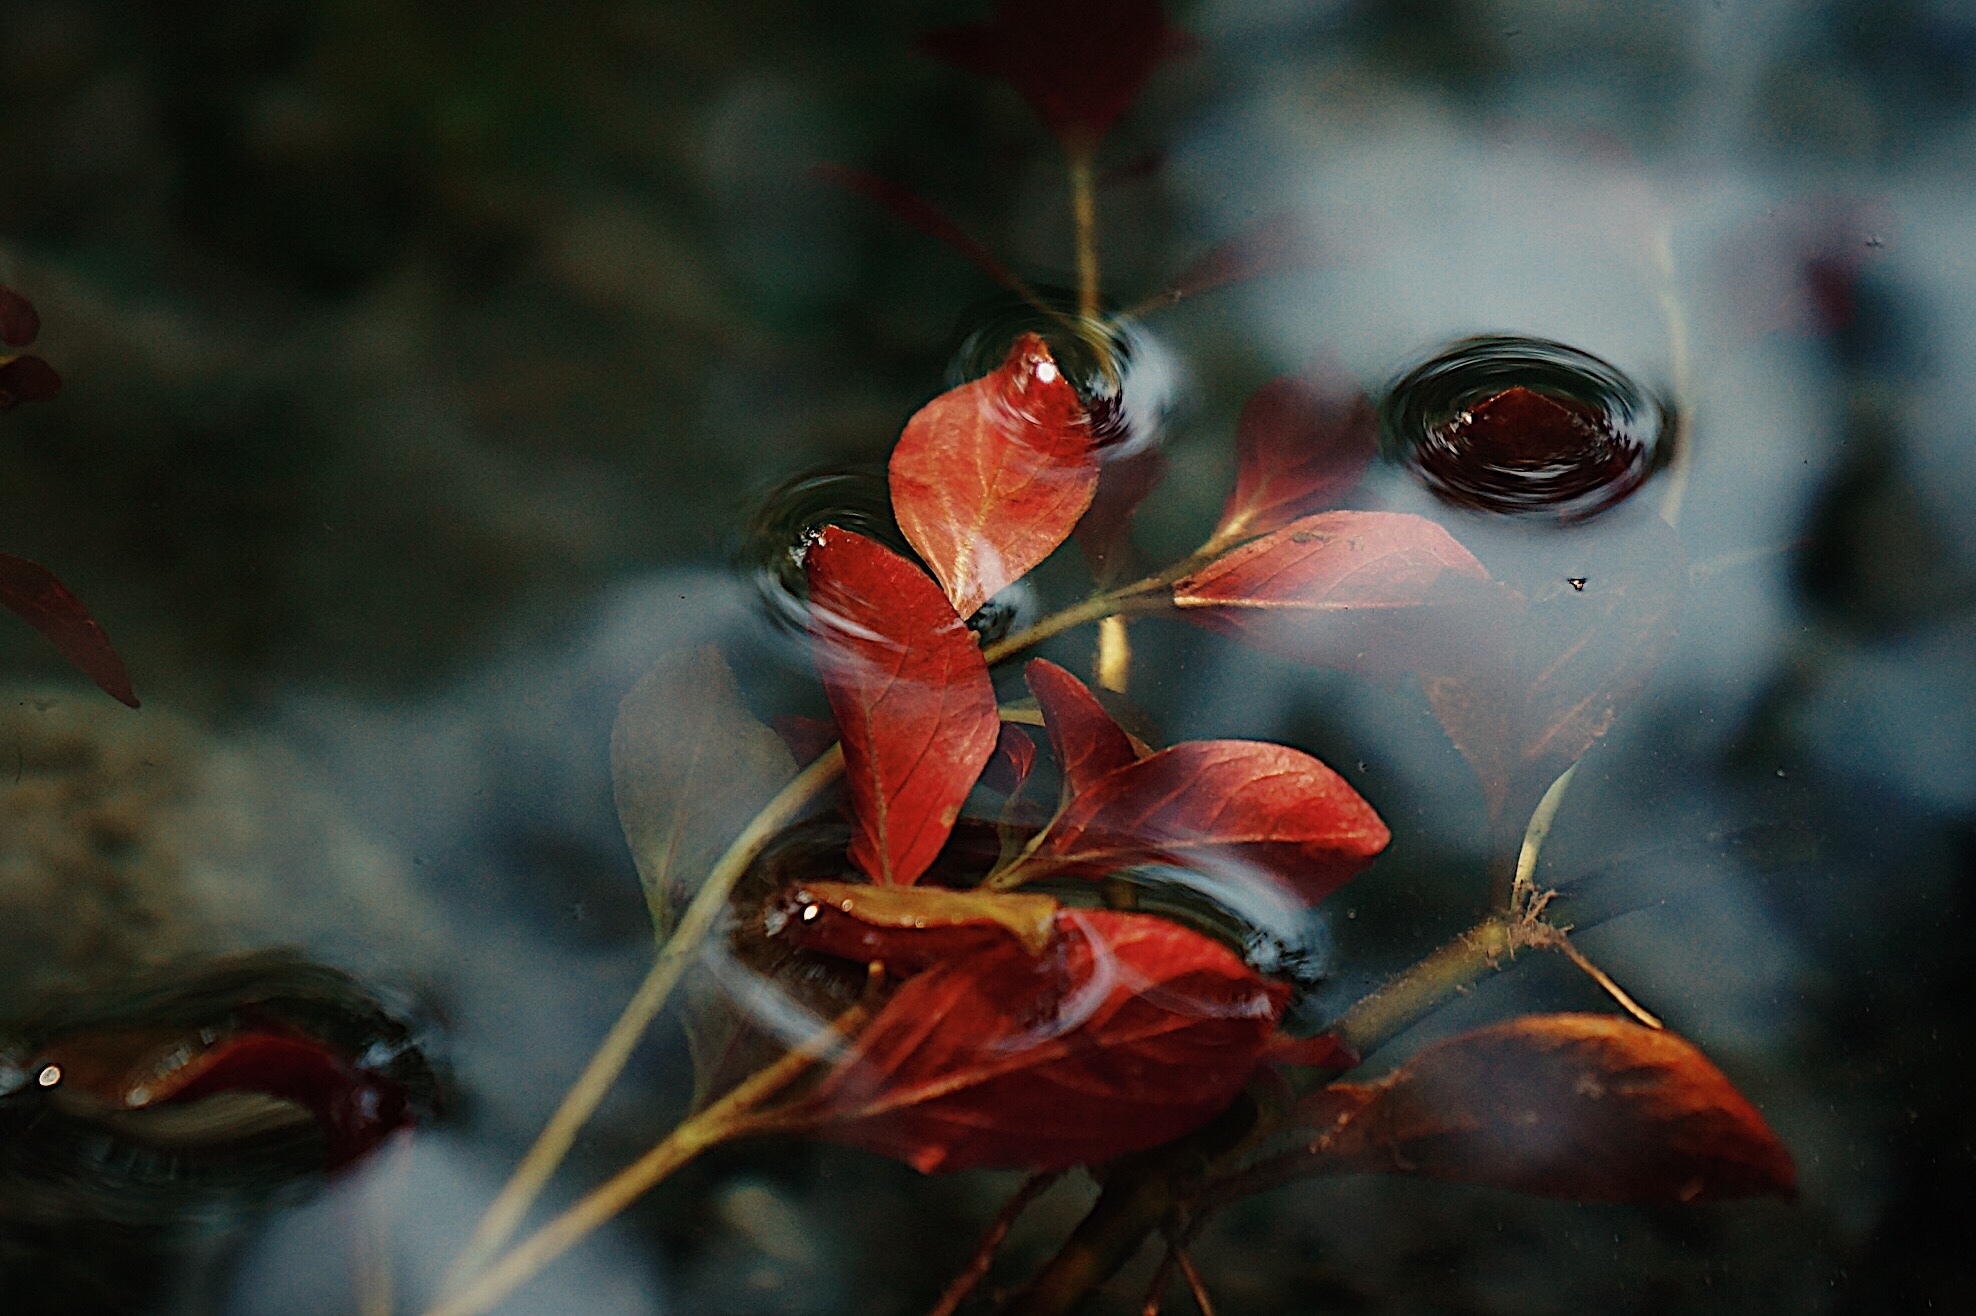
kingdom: Plantae
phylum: Tracheophyta
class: Magnoliopsida
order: Myrtales
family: Onagraceae
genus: Ludwigia
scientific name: Ludwigia repens
